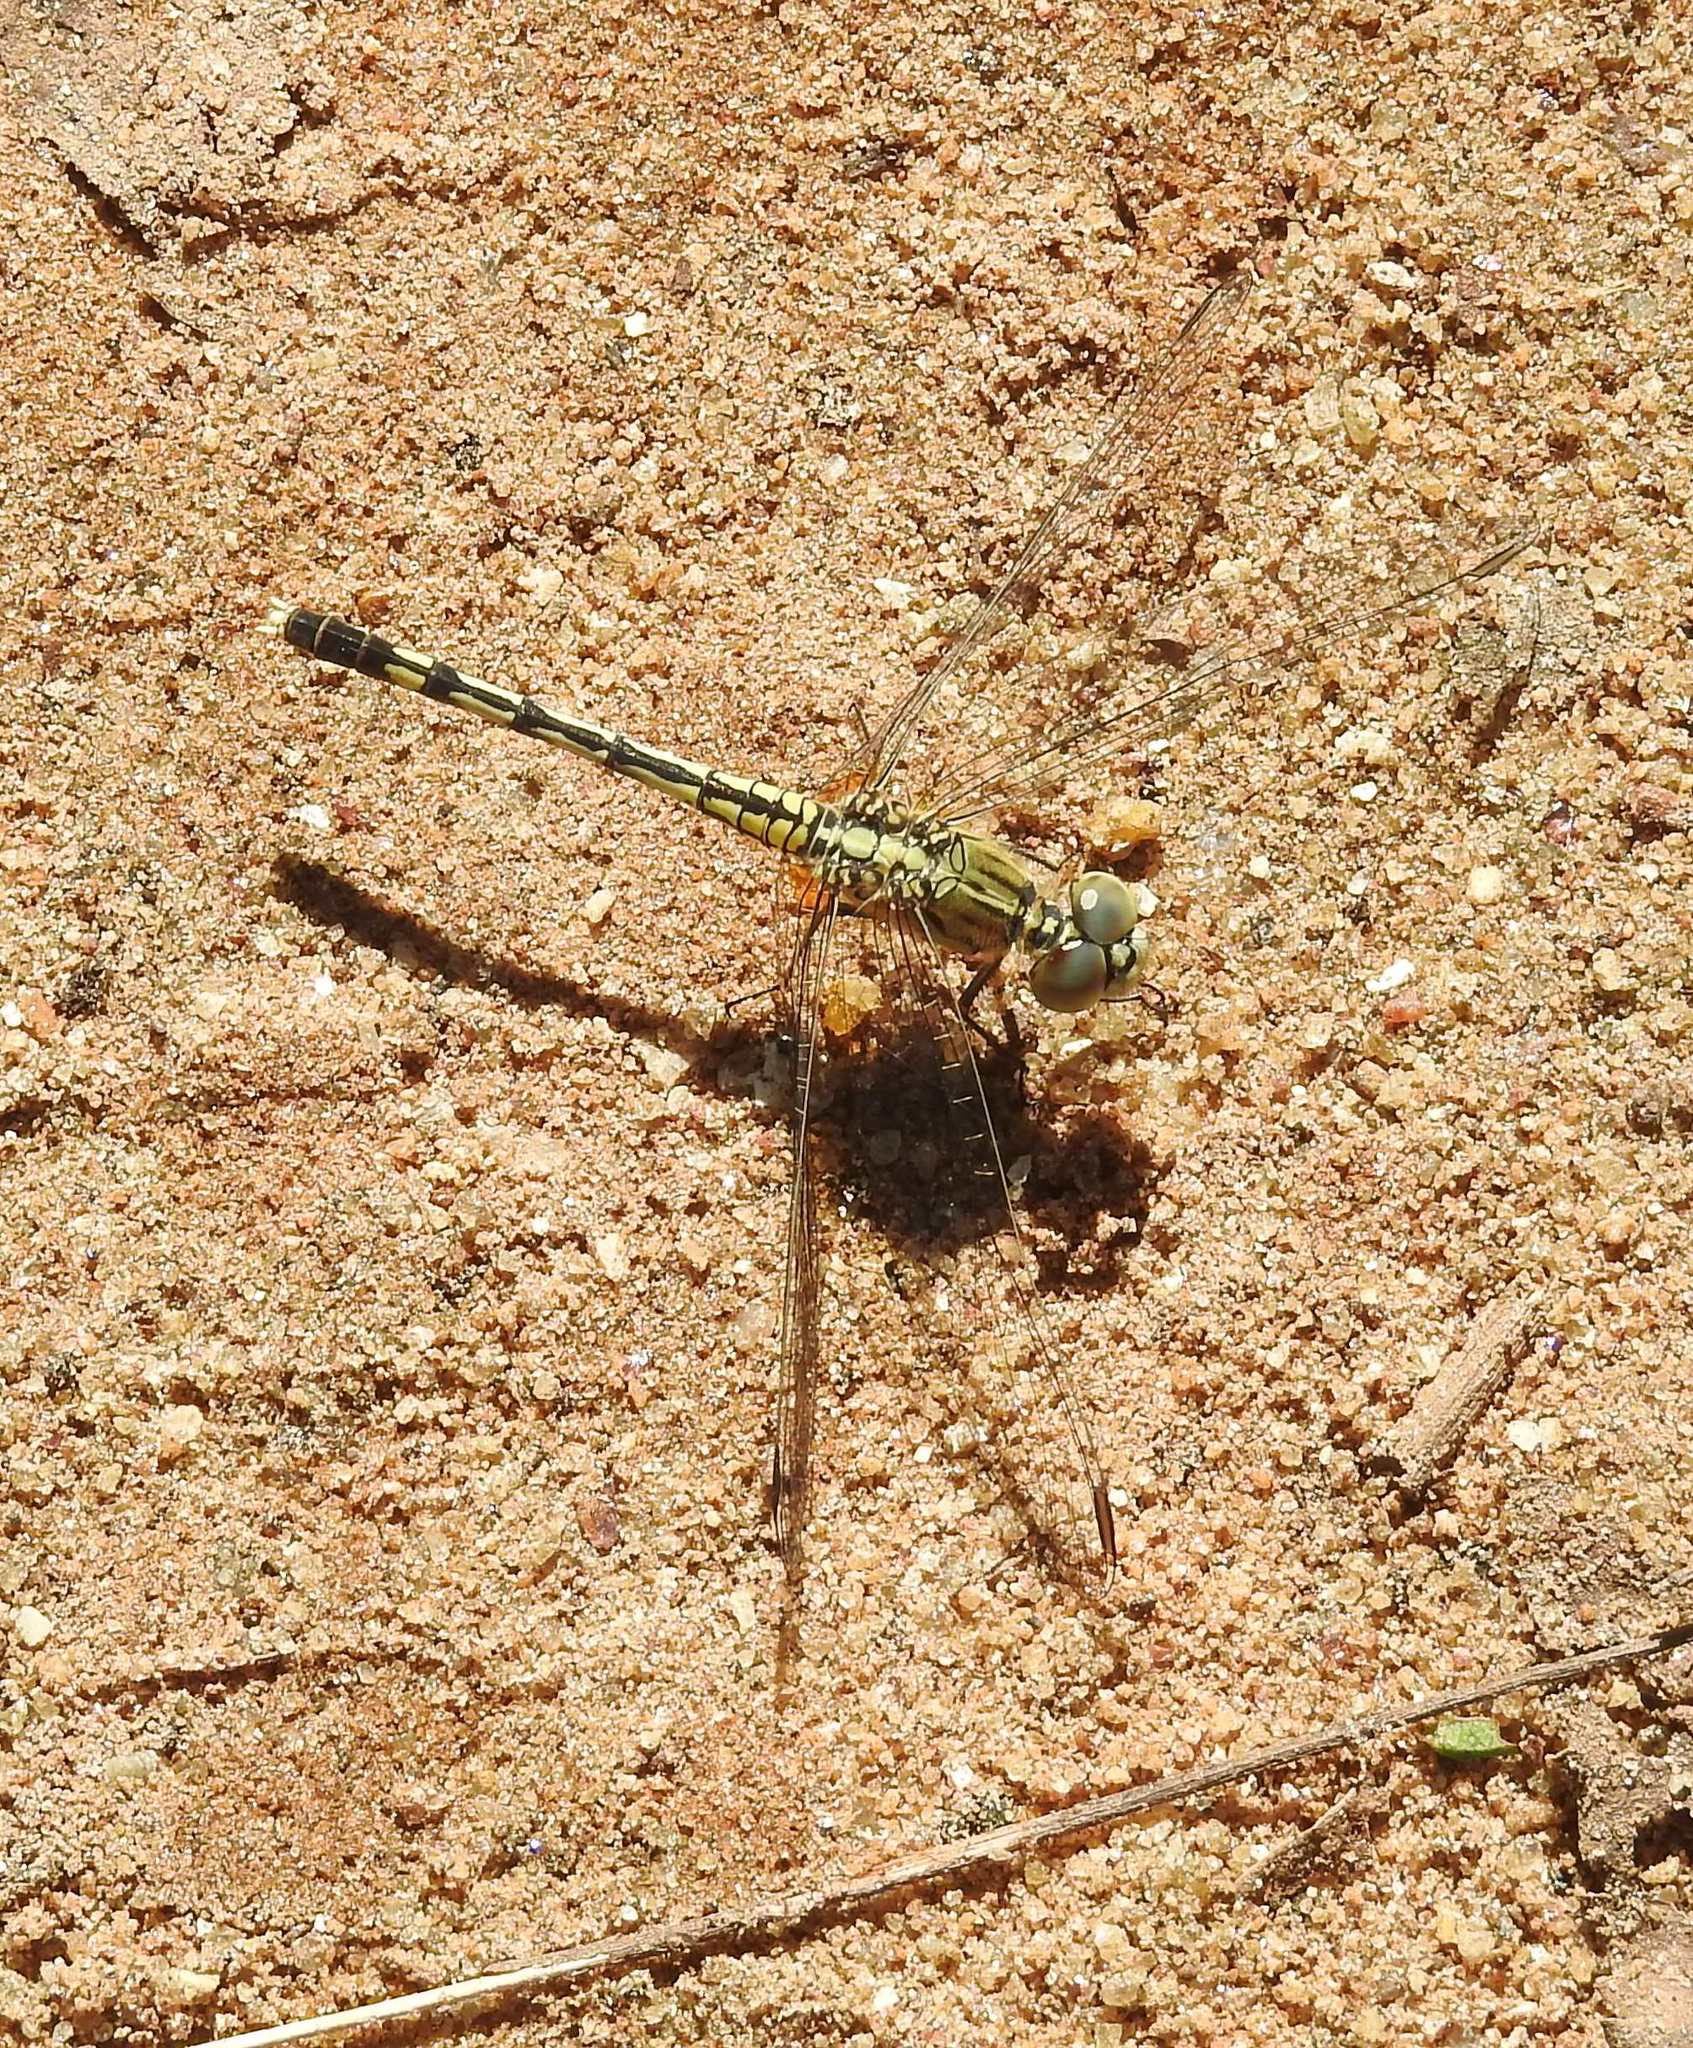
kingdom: Animalia
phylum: Arthropoda
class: Insecta
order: Odonata
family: Libellulidae
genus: Diplacodes
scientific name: Diplacodes trivialis
